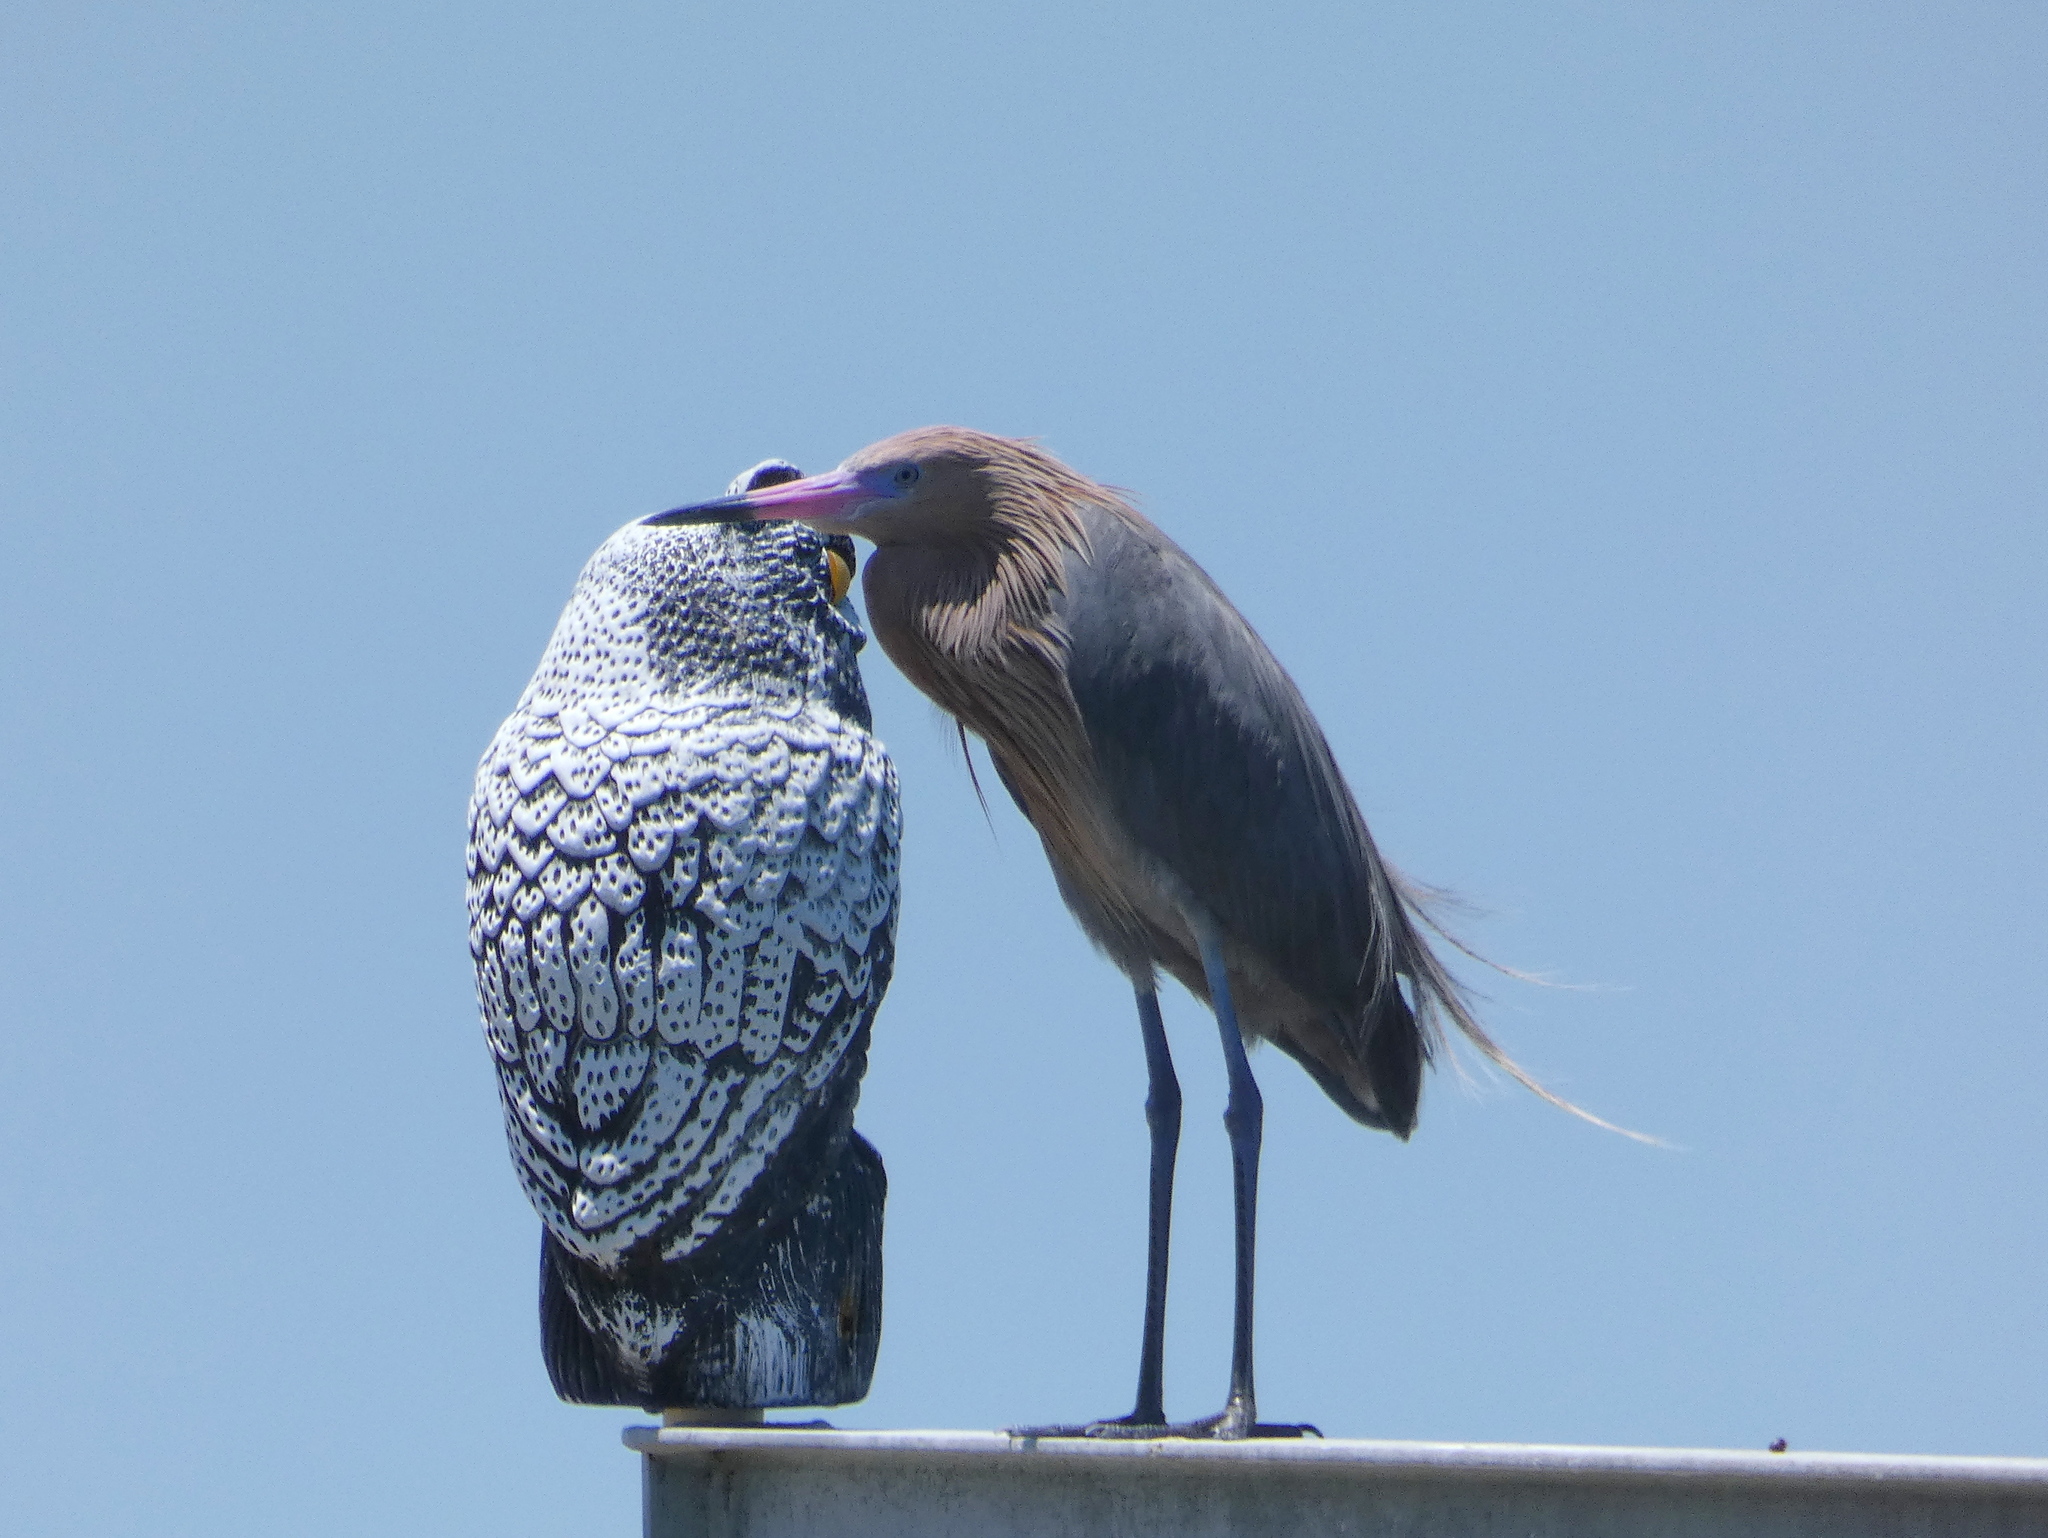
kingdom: Animalia
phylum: Chordata
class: Aves
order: Pelecaniformes
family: Ardeidae
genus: Egretta
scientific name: Egretta rufescens
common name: Reddish egret
